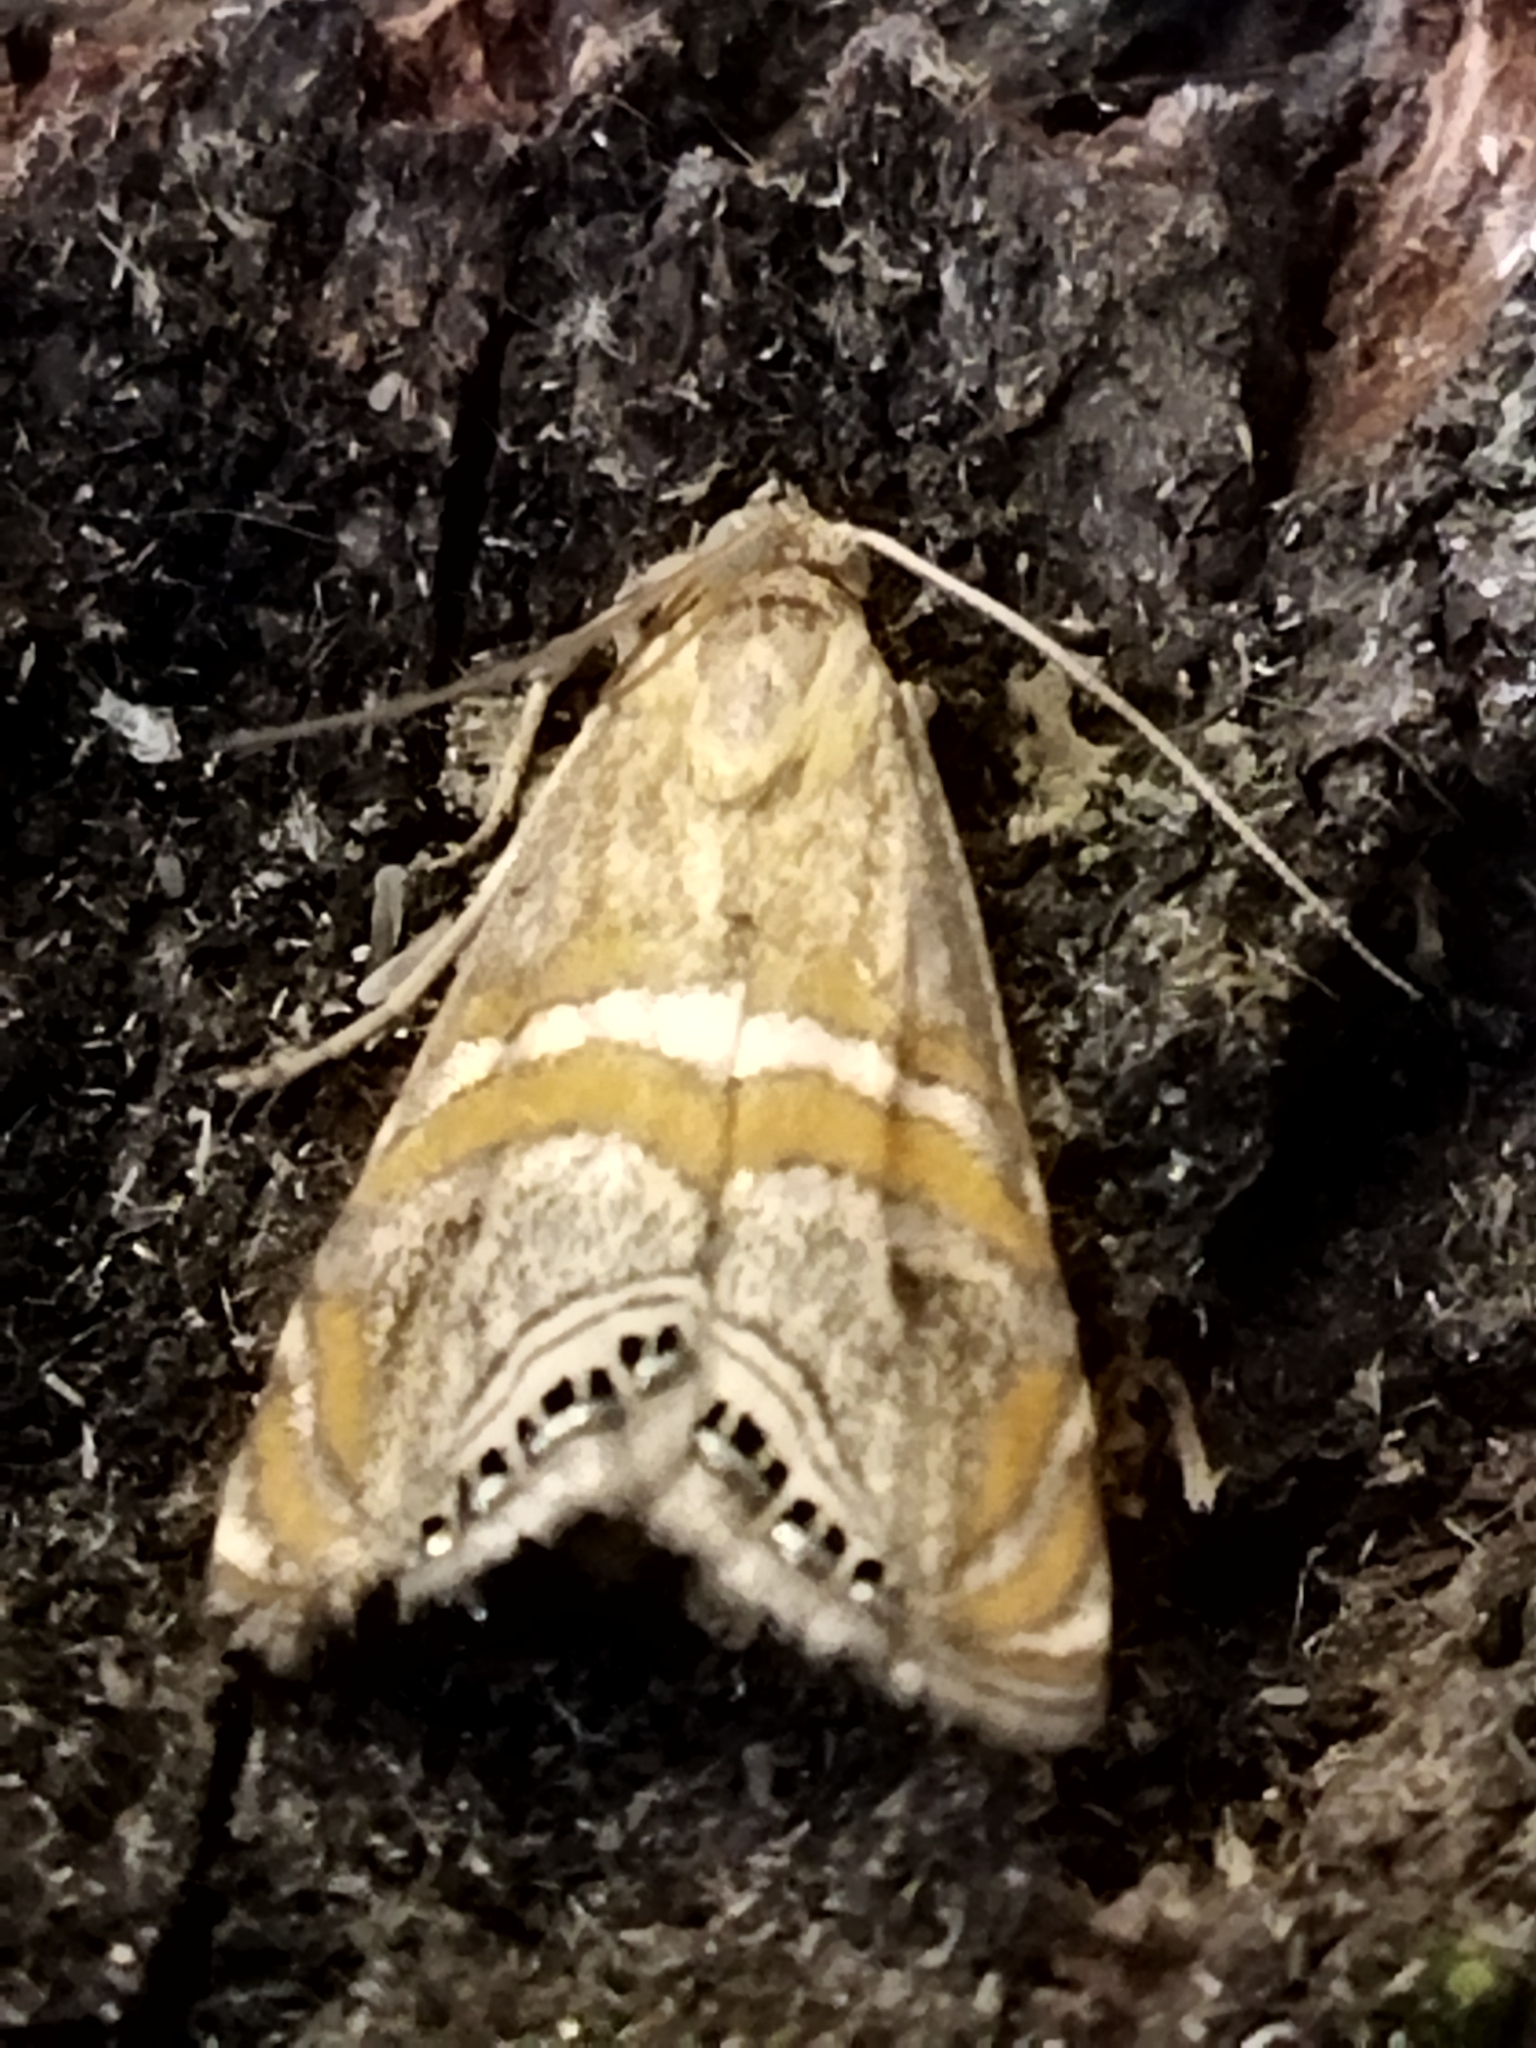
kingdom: Animalia
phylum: Arthropoda
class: Insecta
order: Lepidoptera
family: Crambidae
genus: Euchromius
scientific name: Euchromius bella
